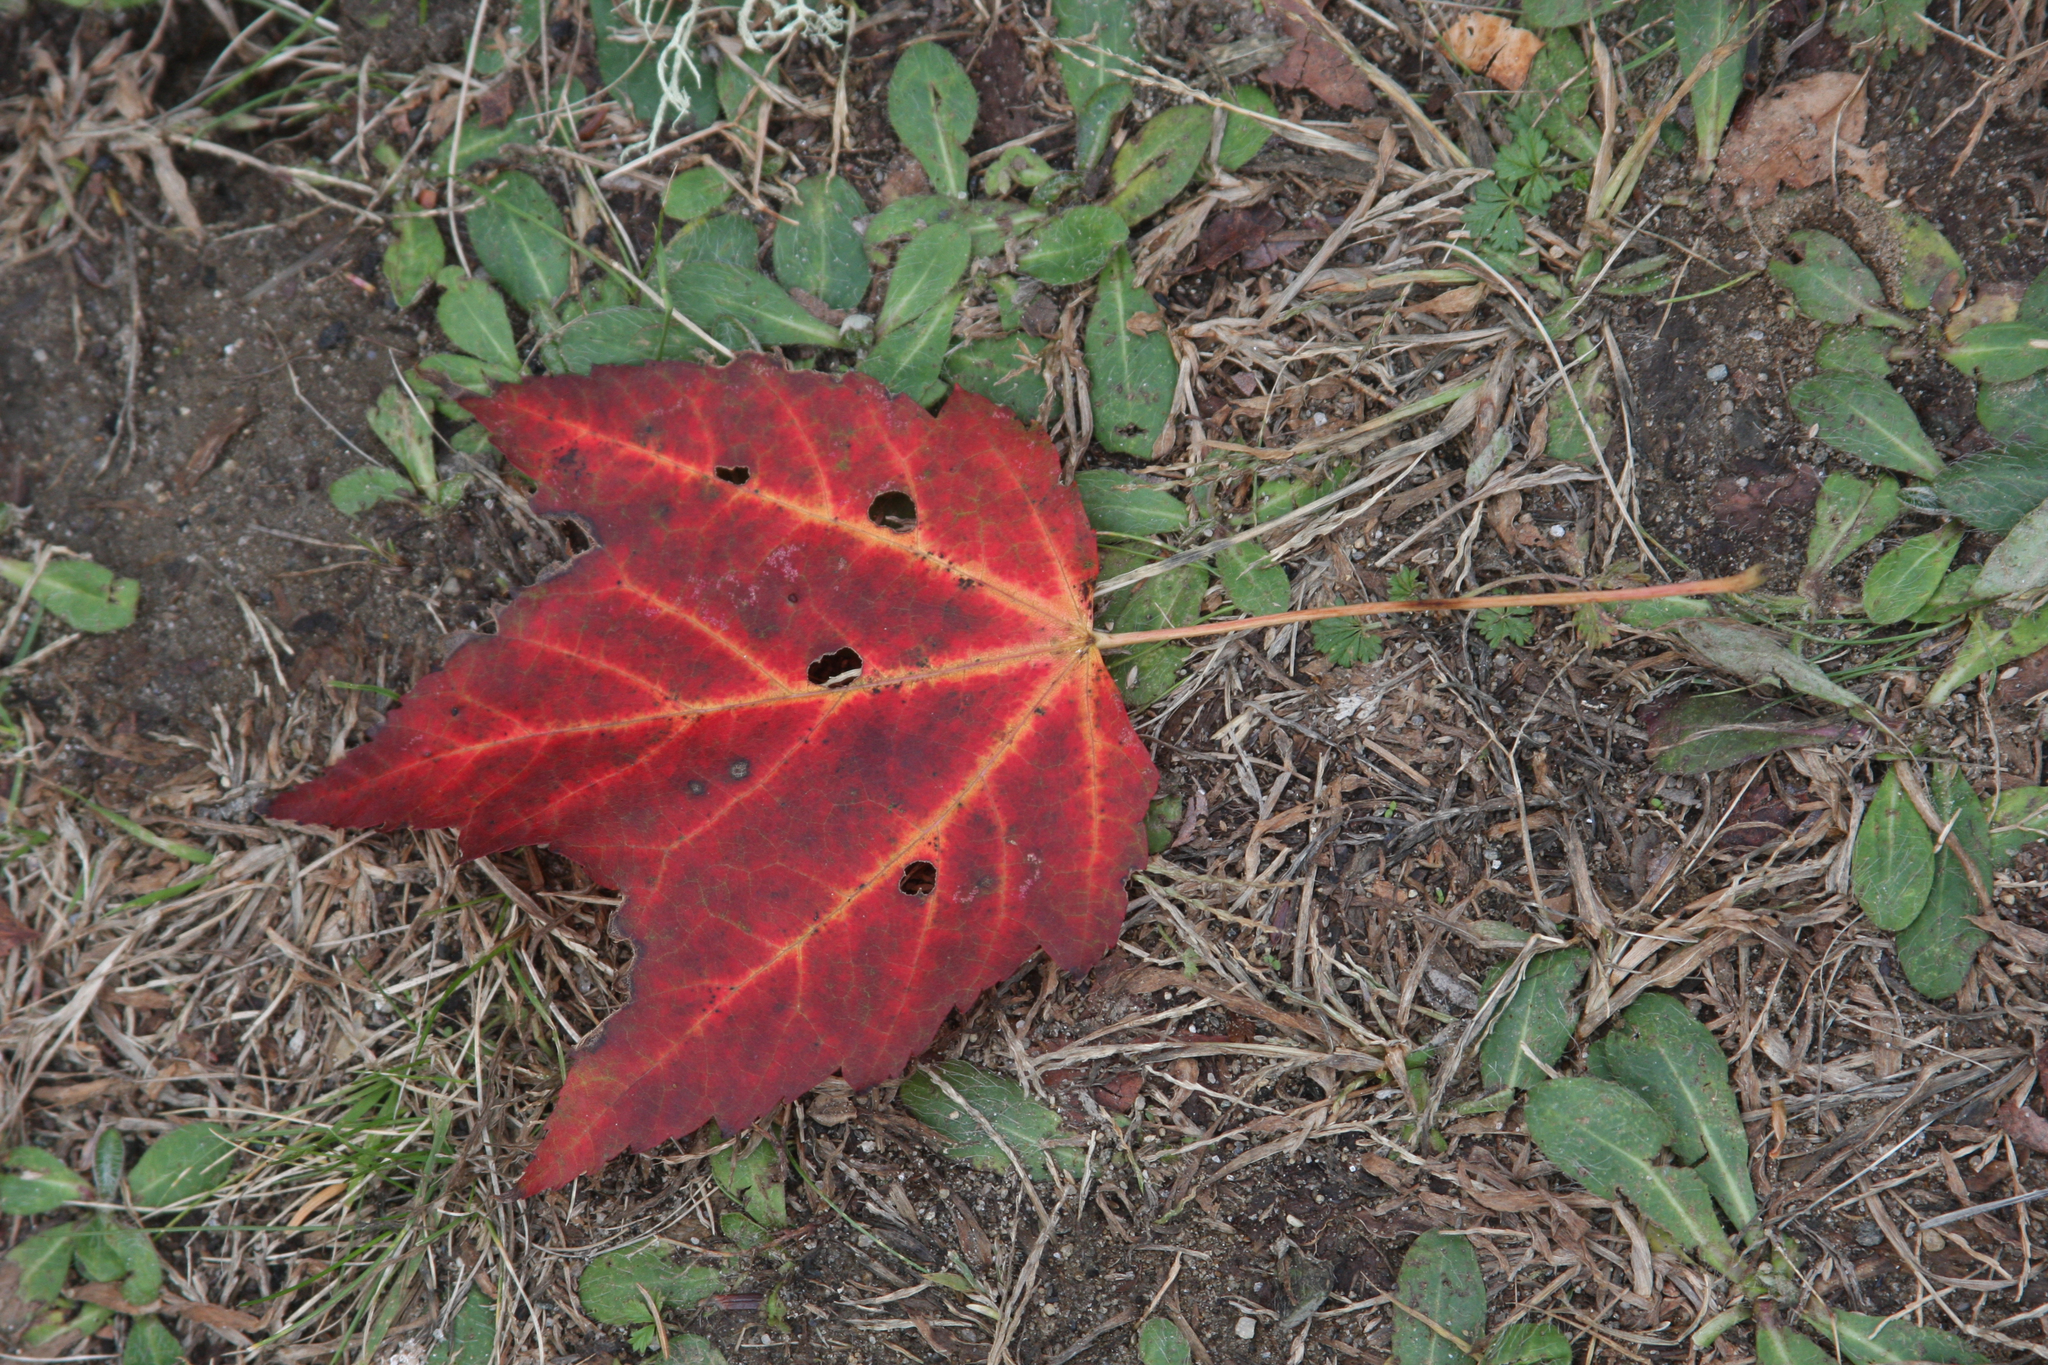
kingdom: Plantae
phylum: Tracheophyta
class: Magnoliopsida
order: Sapindales
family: Sapindaceae
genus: Acer
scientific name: Acer rubrum
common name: Red maple
